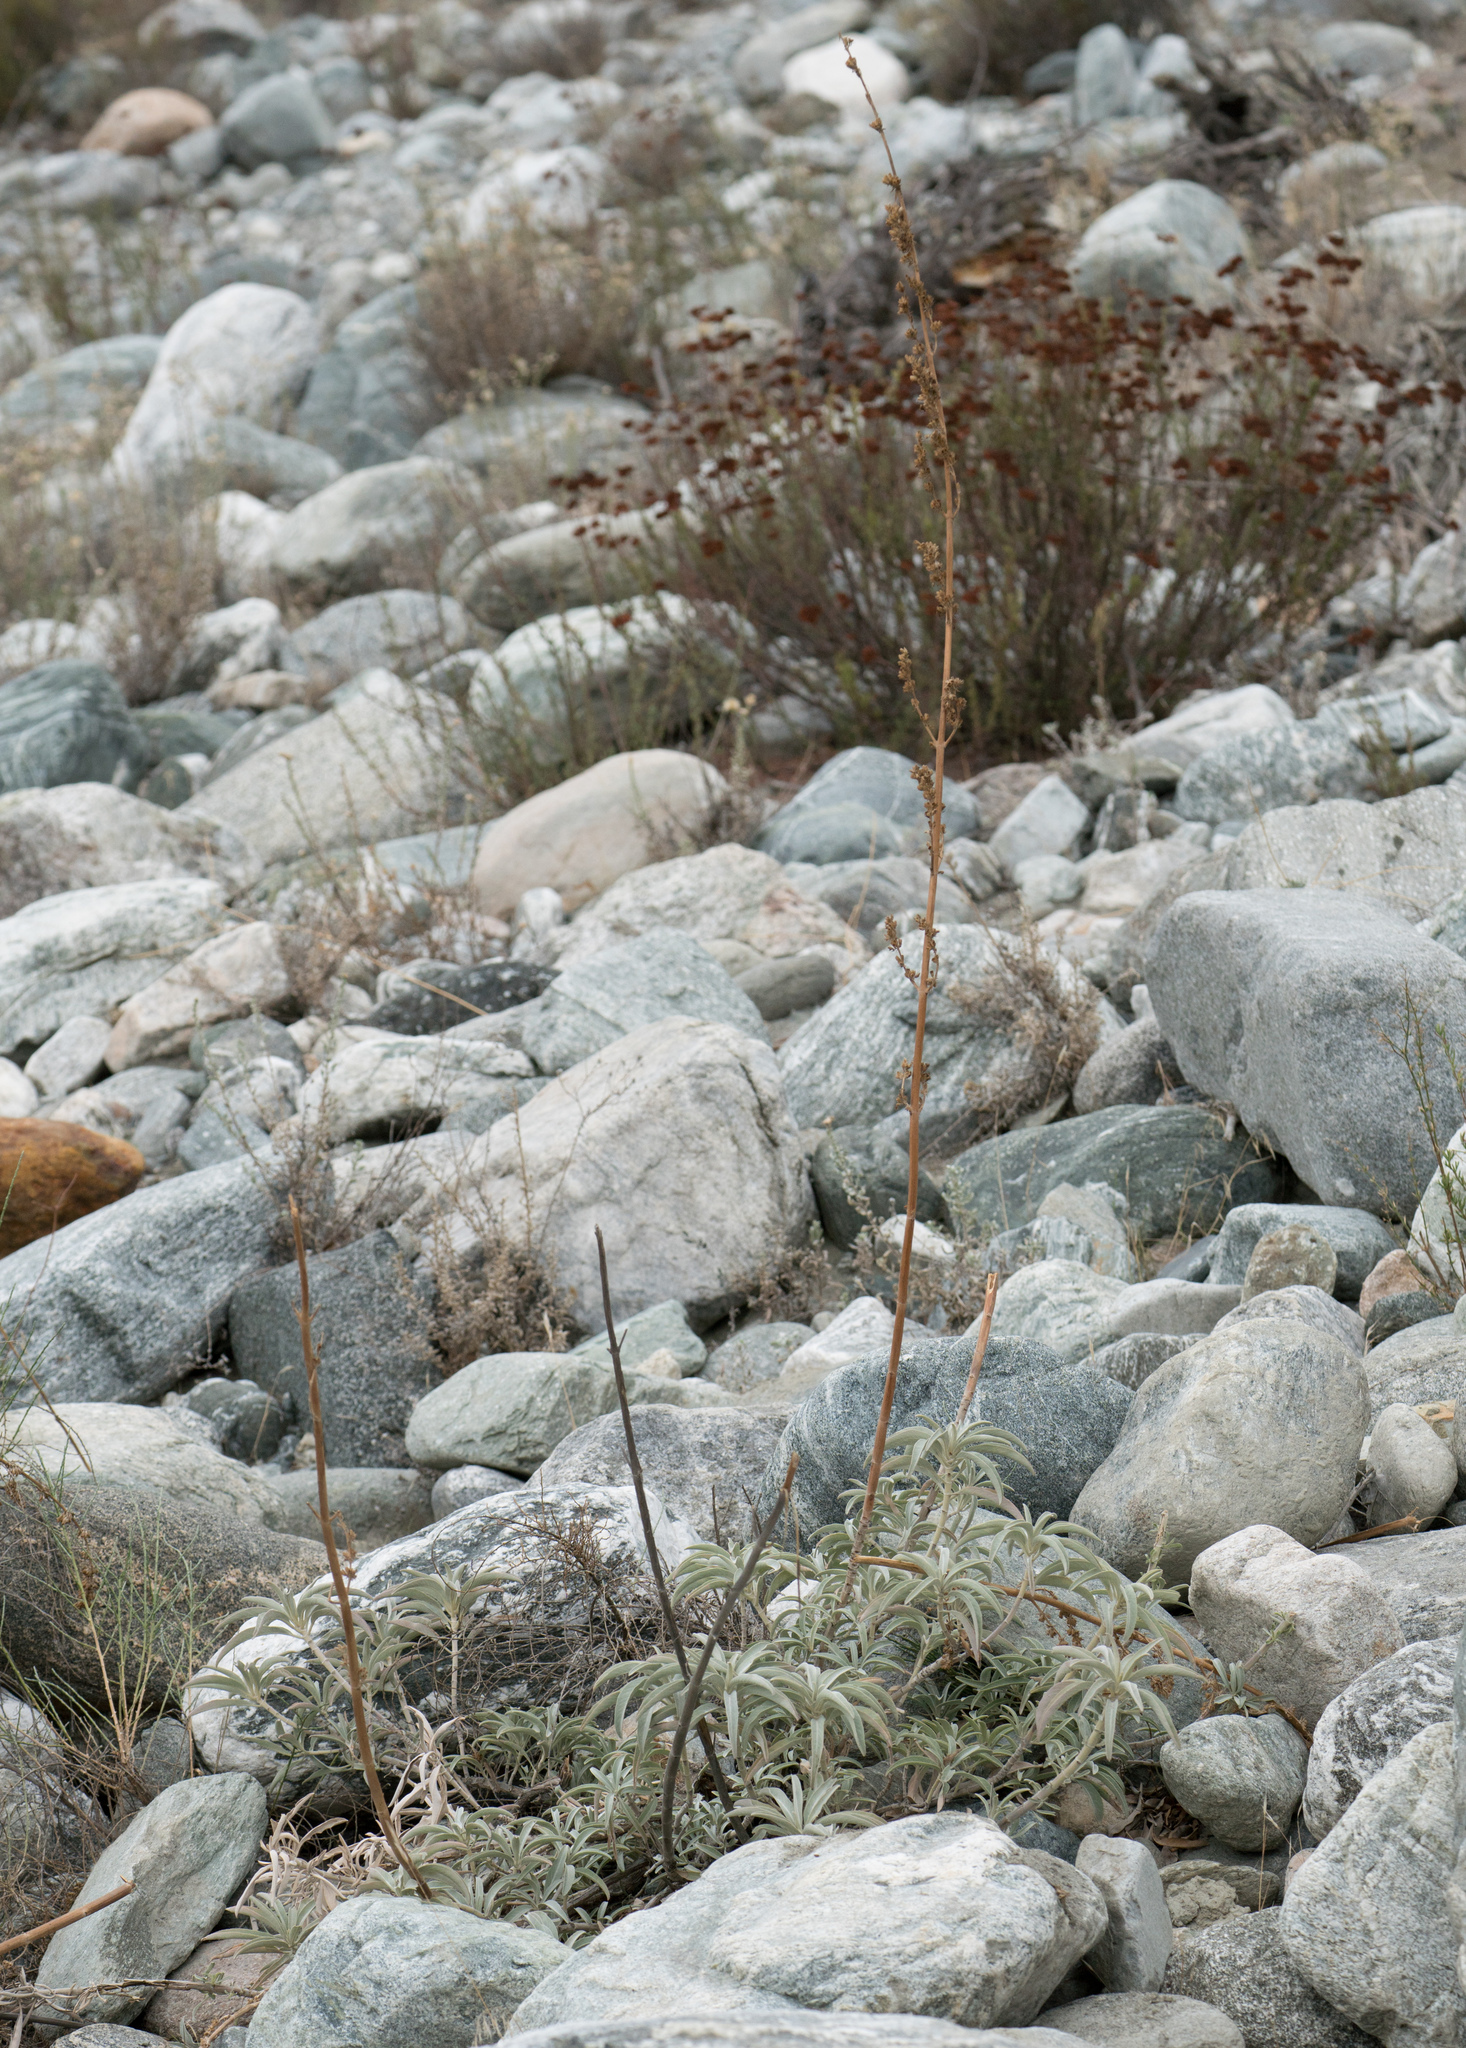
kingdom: Plantae
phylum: Tracheophyta
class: Magnoliopsida
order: Lamiales
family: Lamiaceae
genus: Salvia
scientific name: Salvia apiana
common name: White sage
